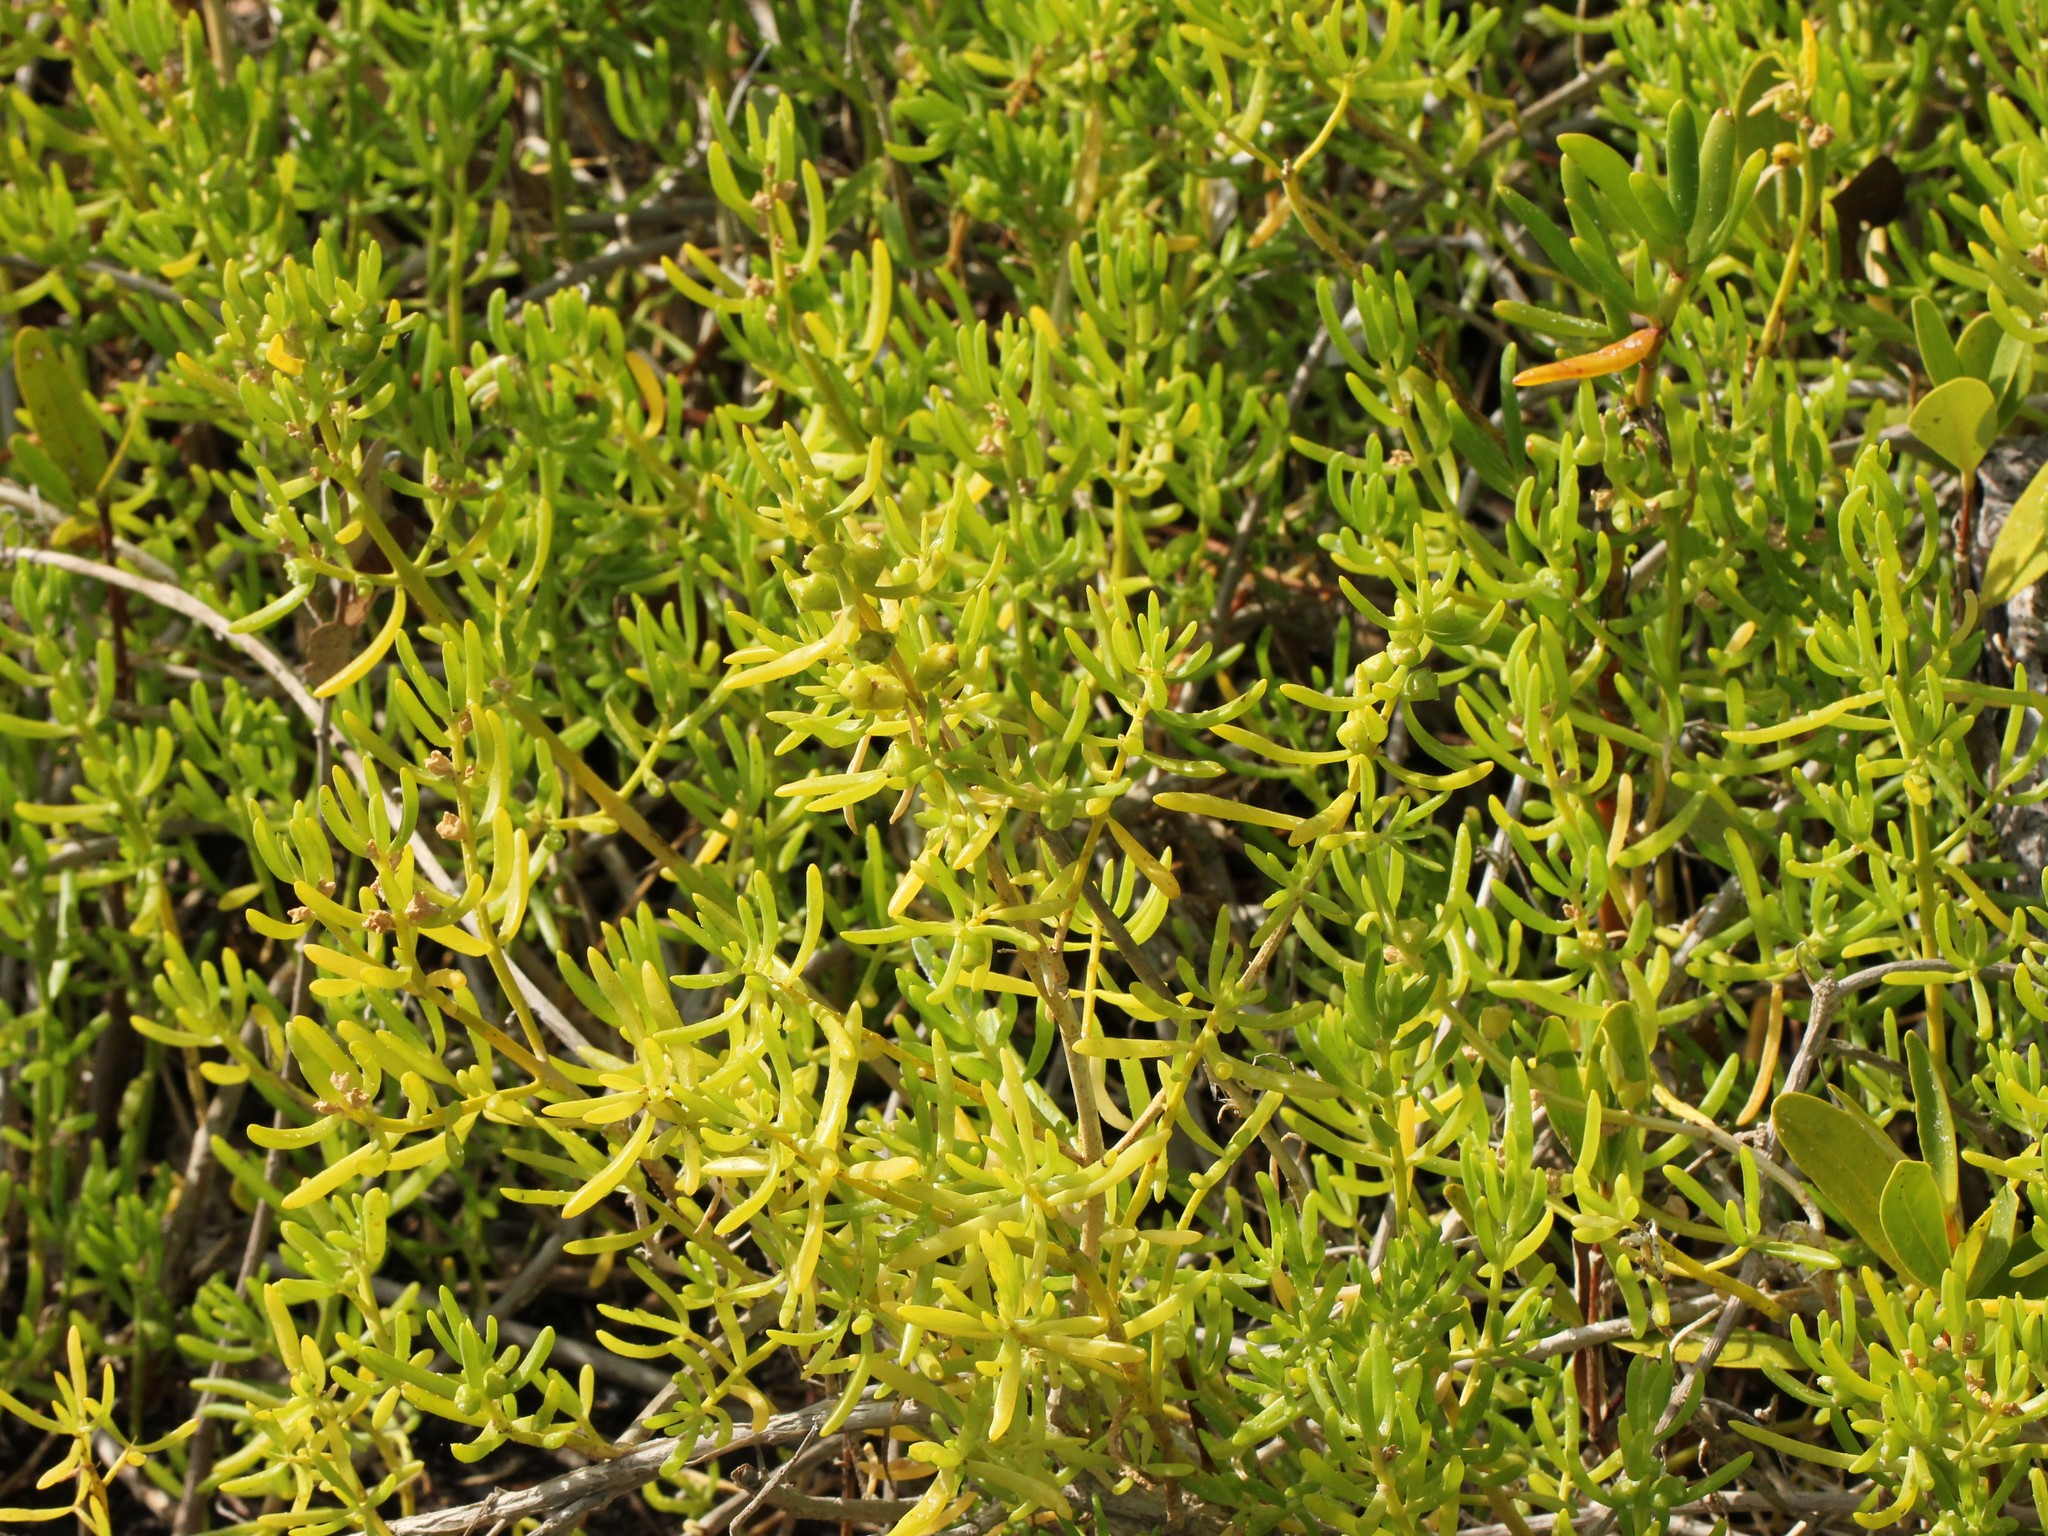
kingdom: Plantae
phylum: Tracheophyta
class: Magnoliopsida
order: Brassicales
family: Bataceae
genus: Batis
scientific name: Batis maritima
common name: Turtleweed
